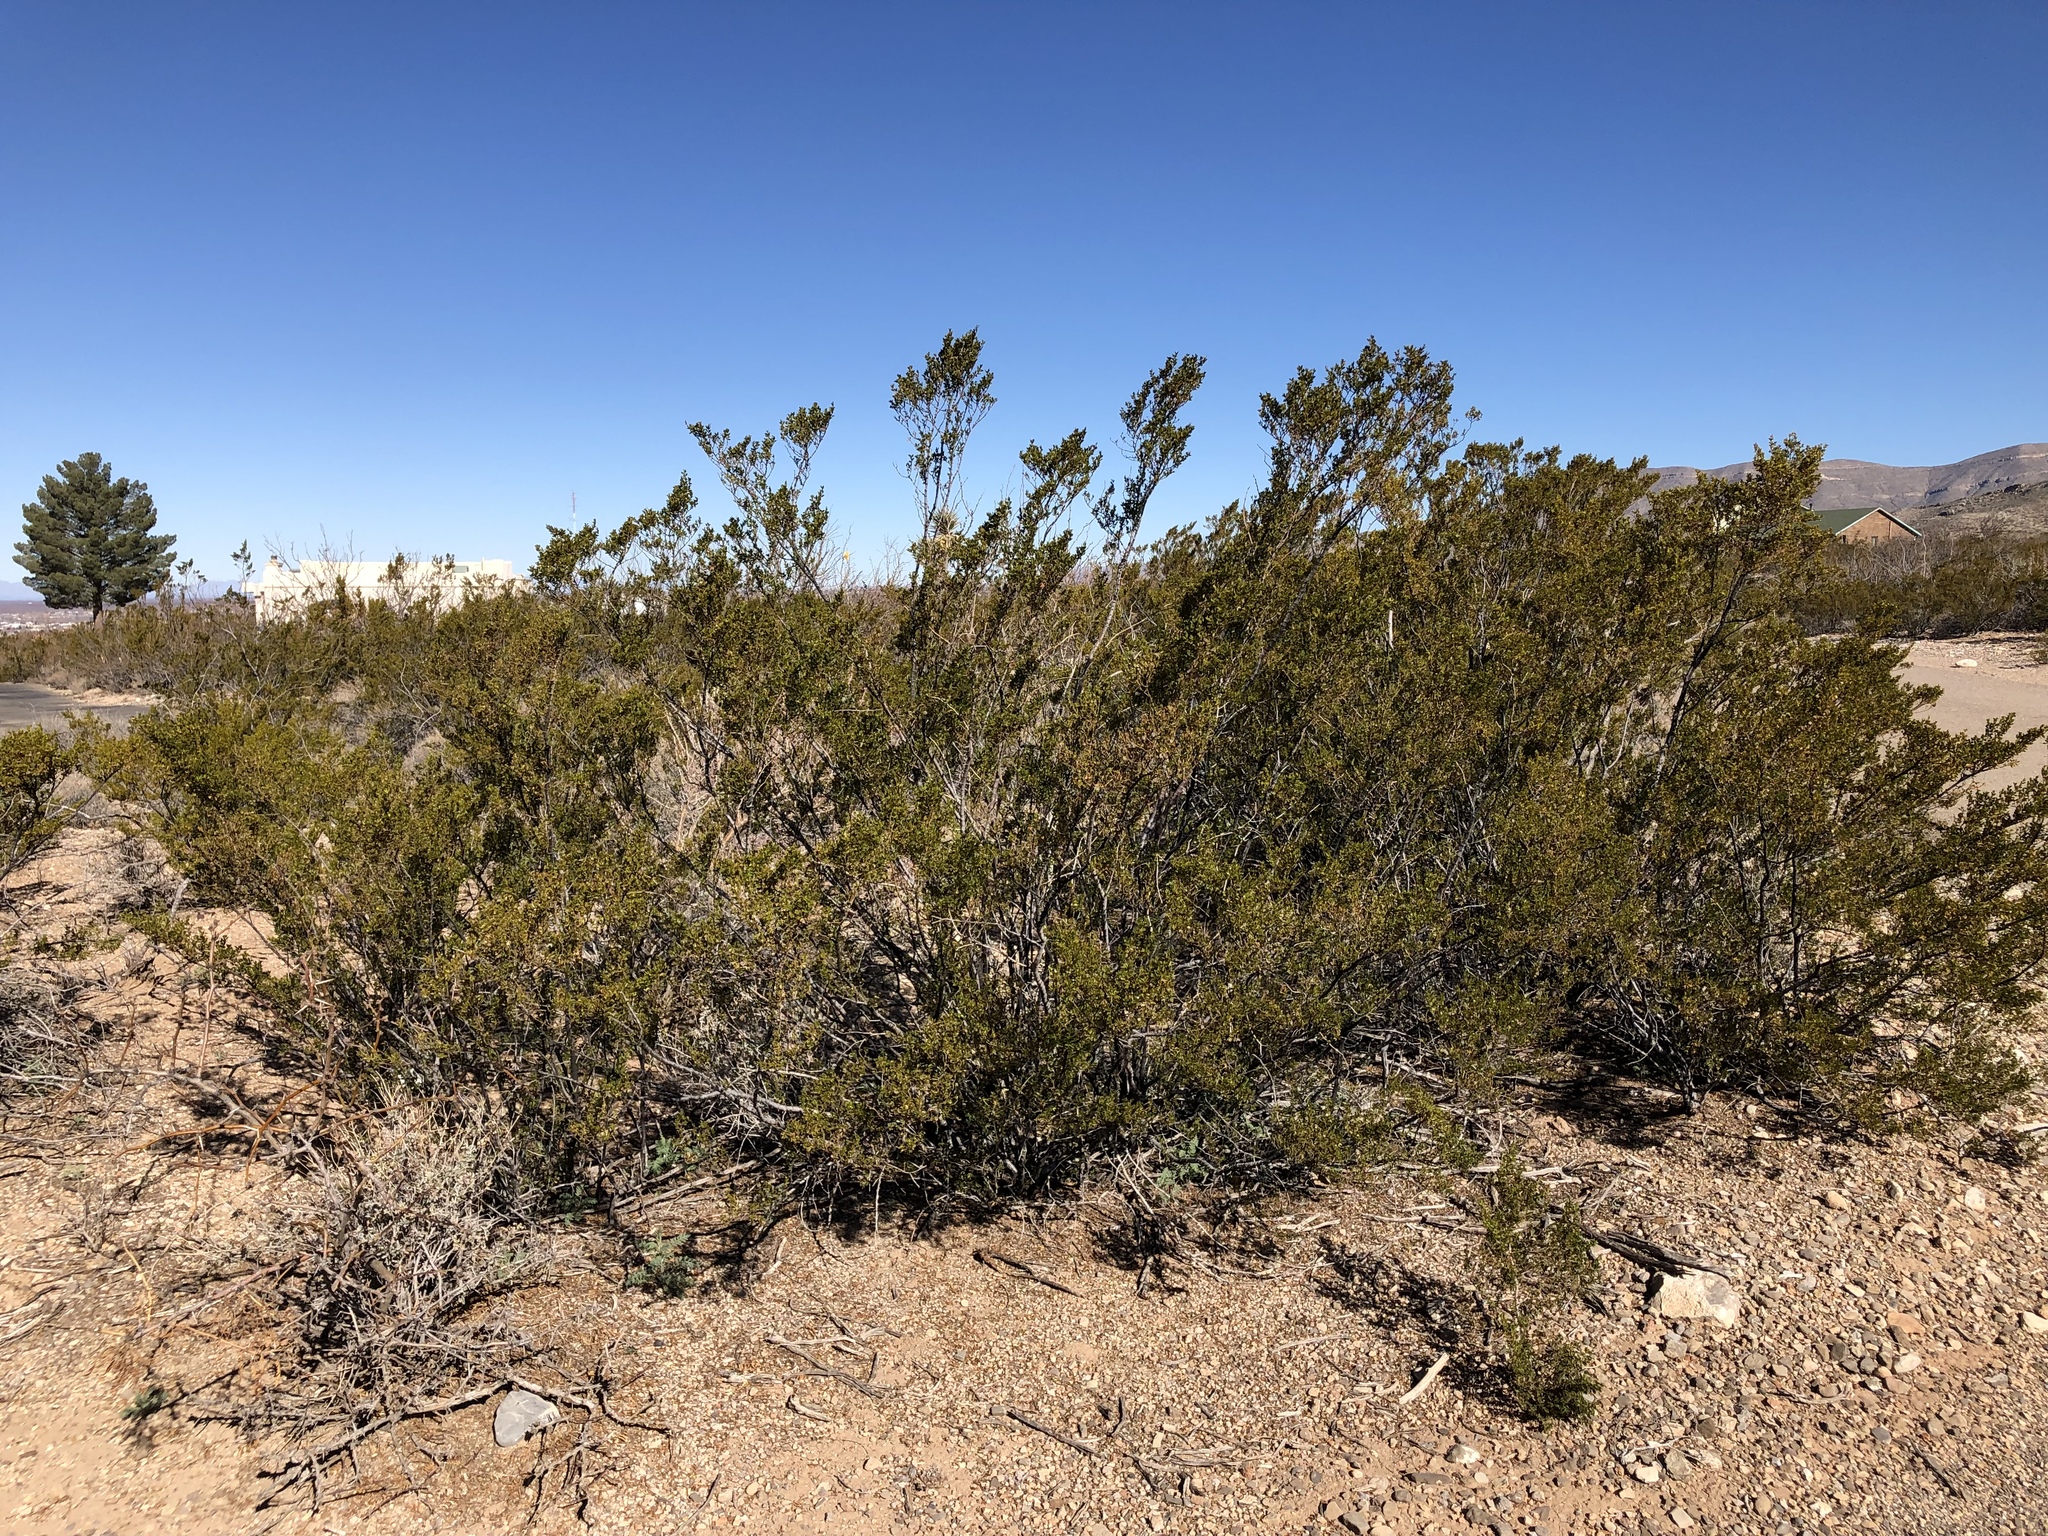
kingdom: Plantae
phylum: Tracheophyta
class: Magnoliopsida
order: Zygophyllales
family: Zygophyllaceae
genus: Larrea
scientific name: Larrea tridentata
